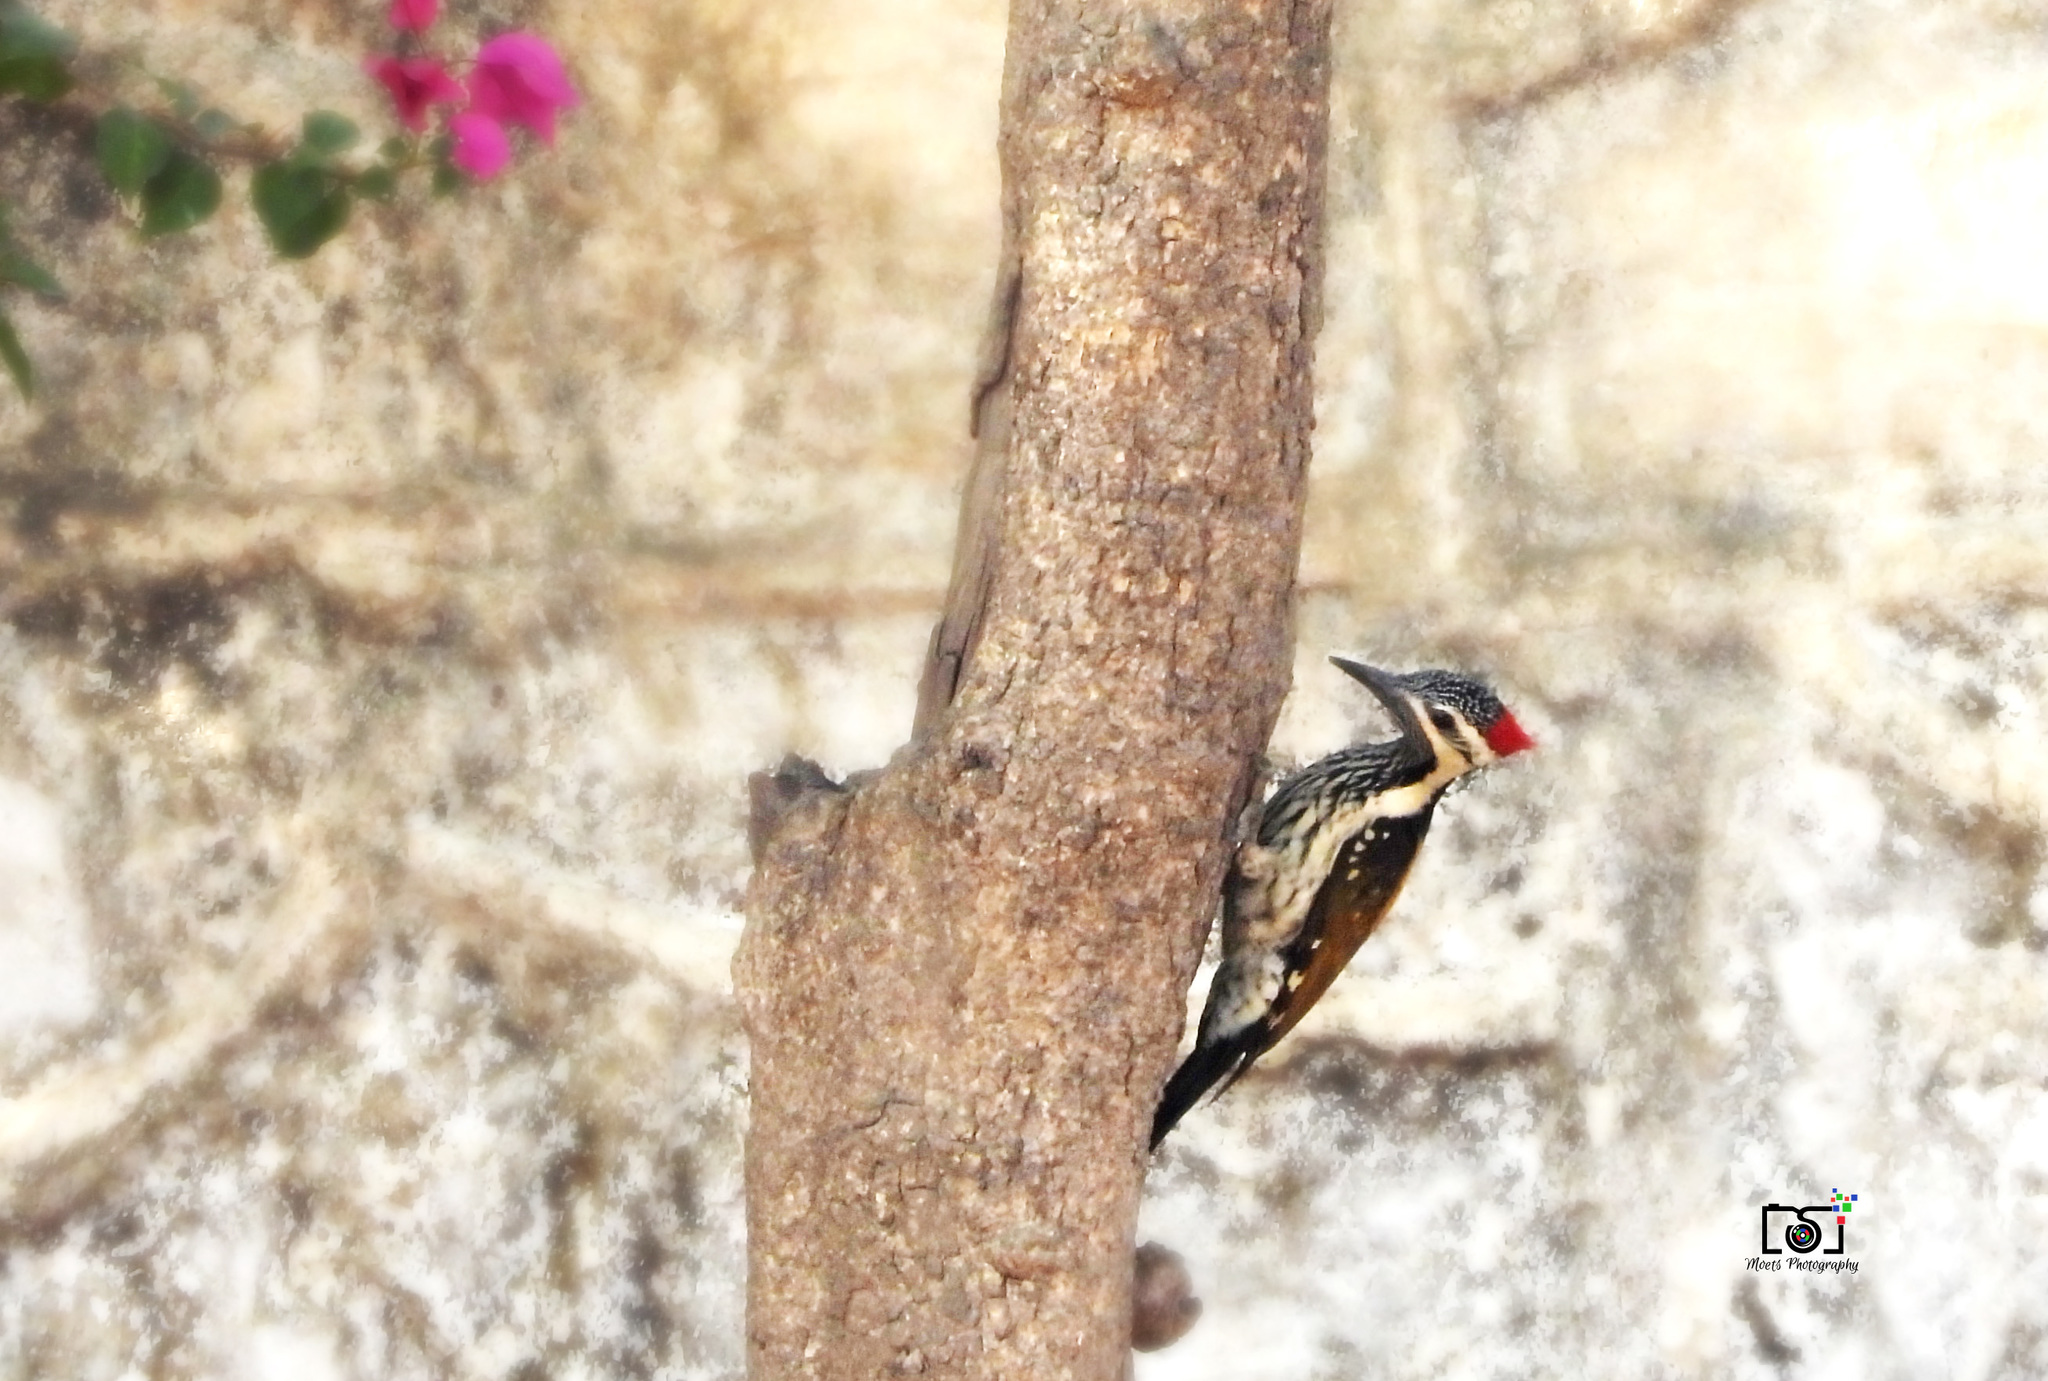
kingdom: Animalia
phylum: Chordata
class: Aves
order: Piciformes
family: Picidae
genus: Dinopium
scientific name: Dinopium benghalense
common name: Black-rumped flameback
